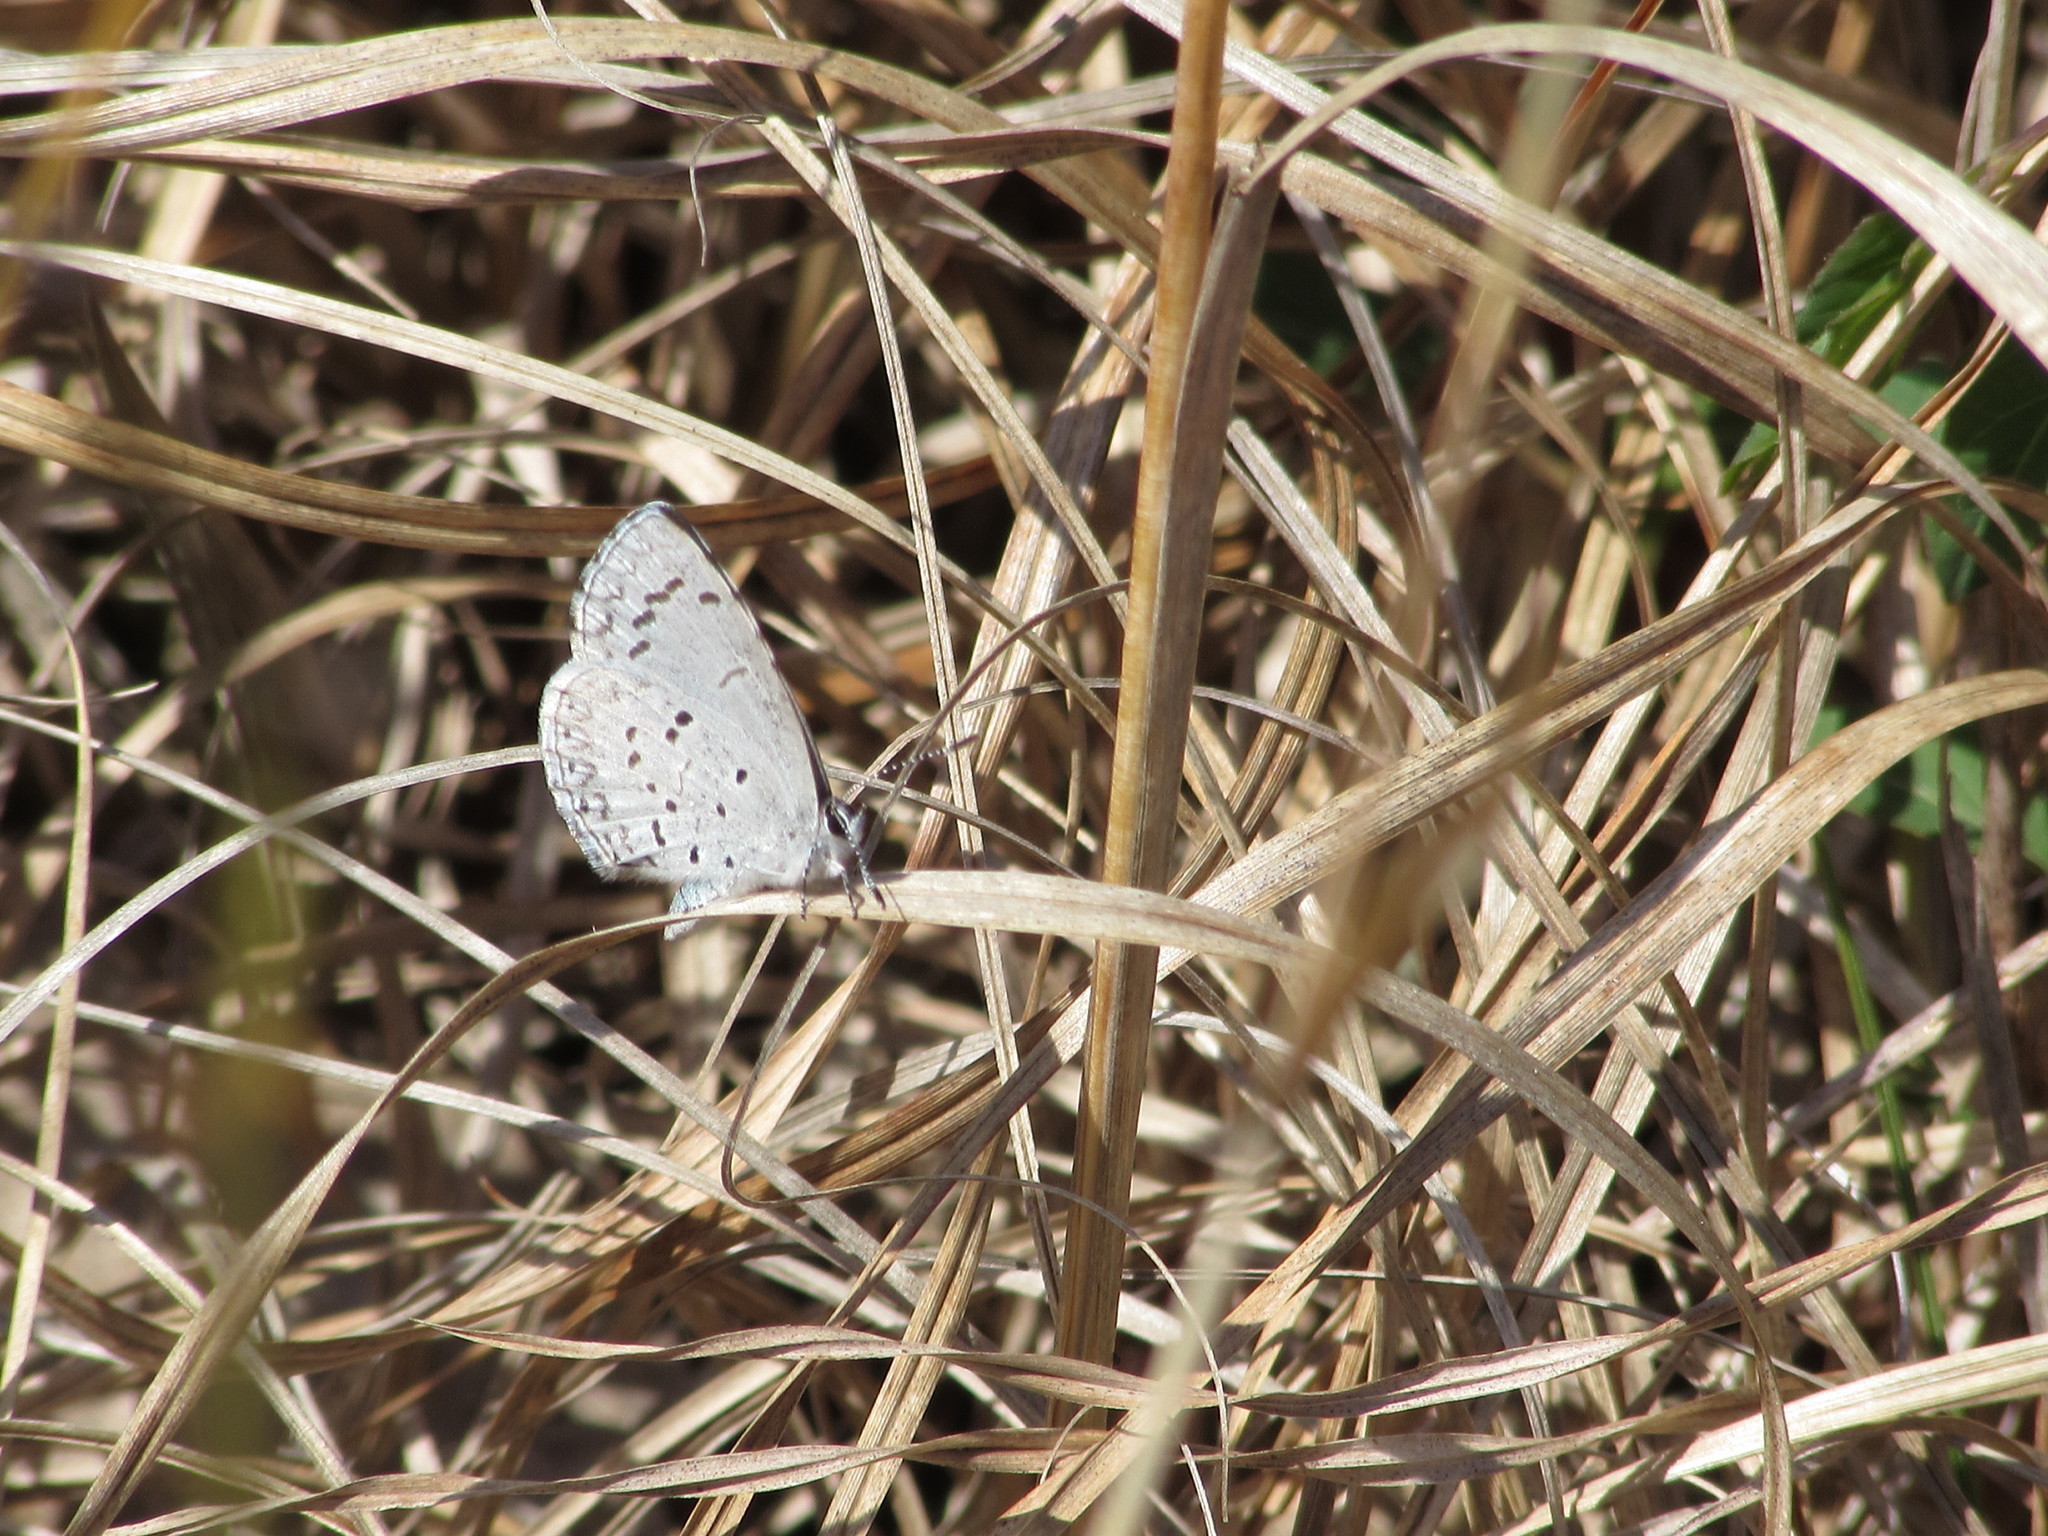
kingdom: Animalia
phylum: Arthropoda
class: Insecta
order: Lepidoptera
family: Lycaenidae
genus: Celastrina
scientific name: Celastrina ladon
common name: Spring azure
